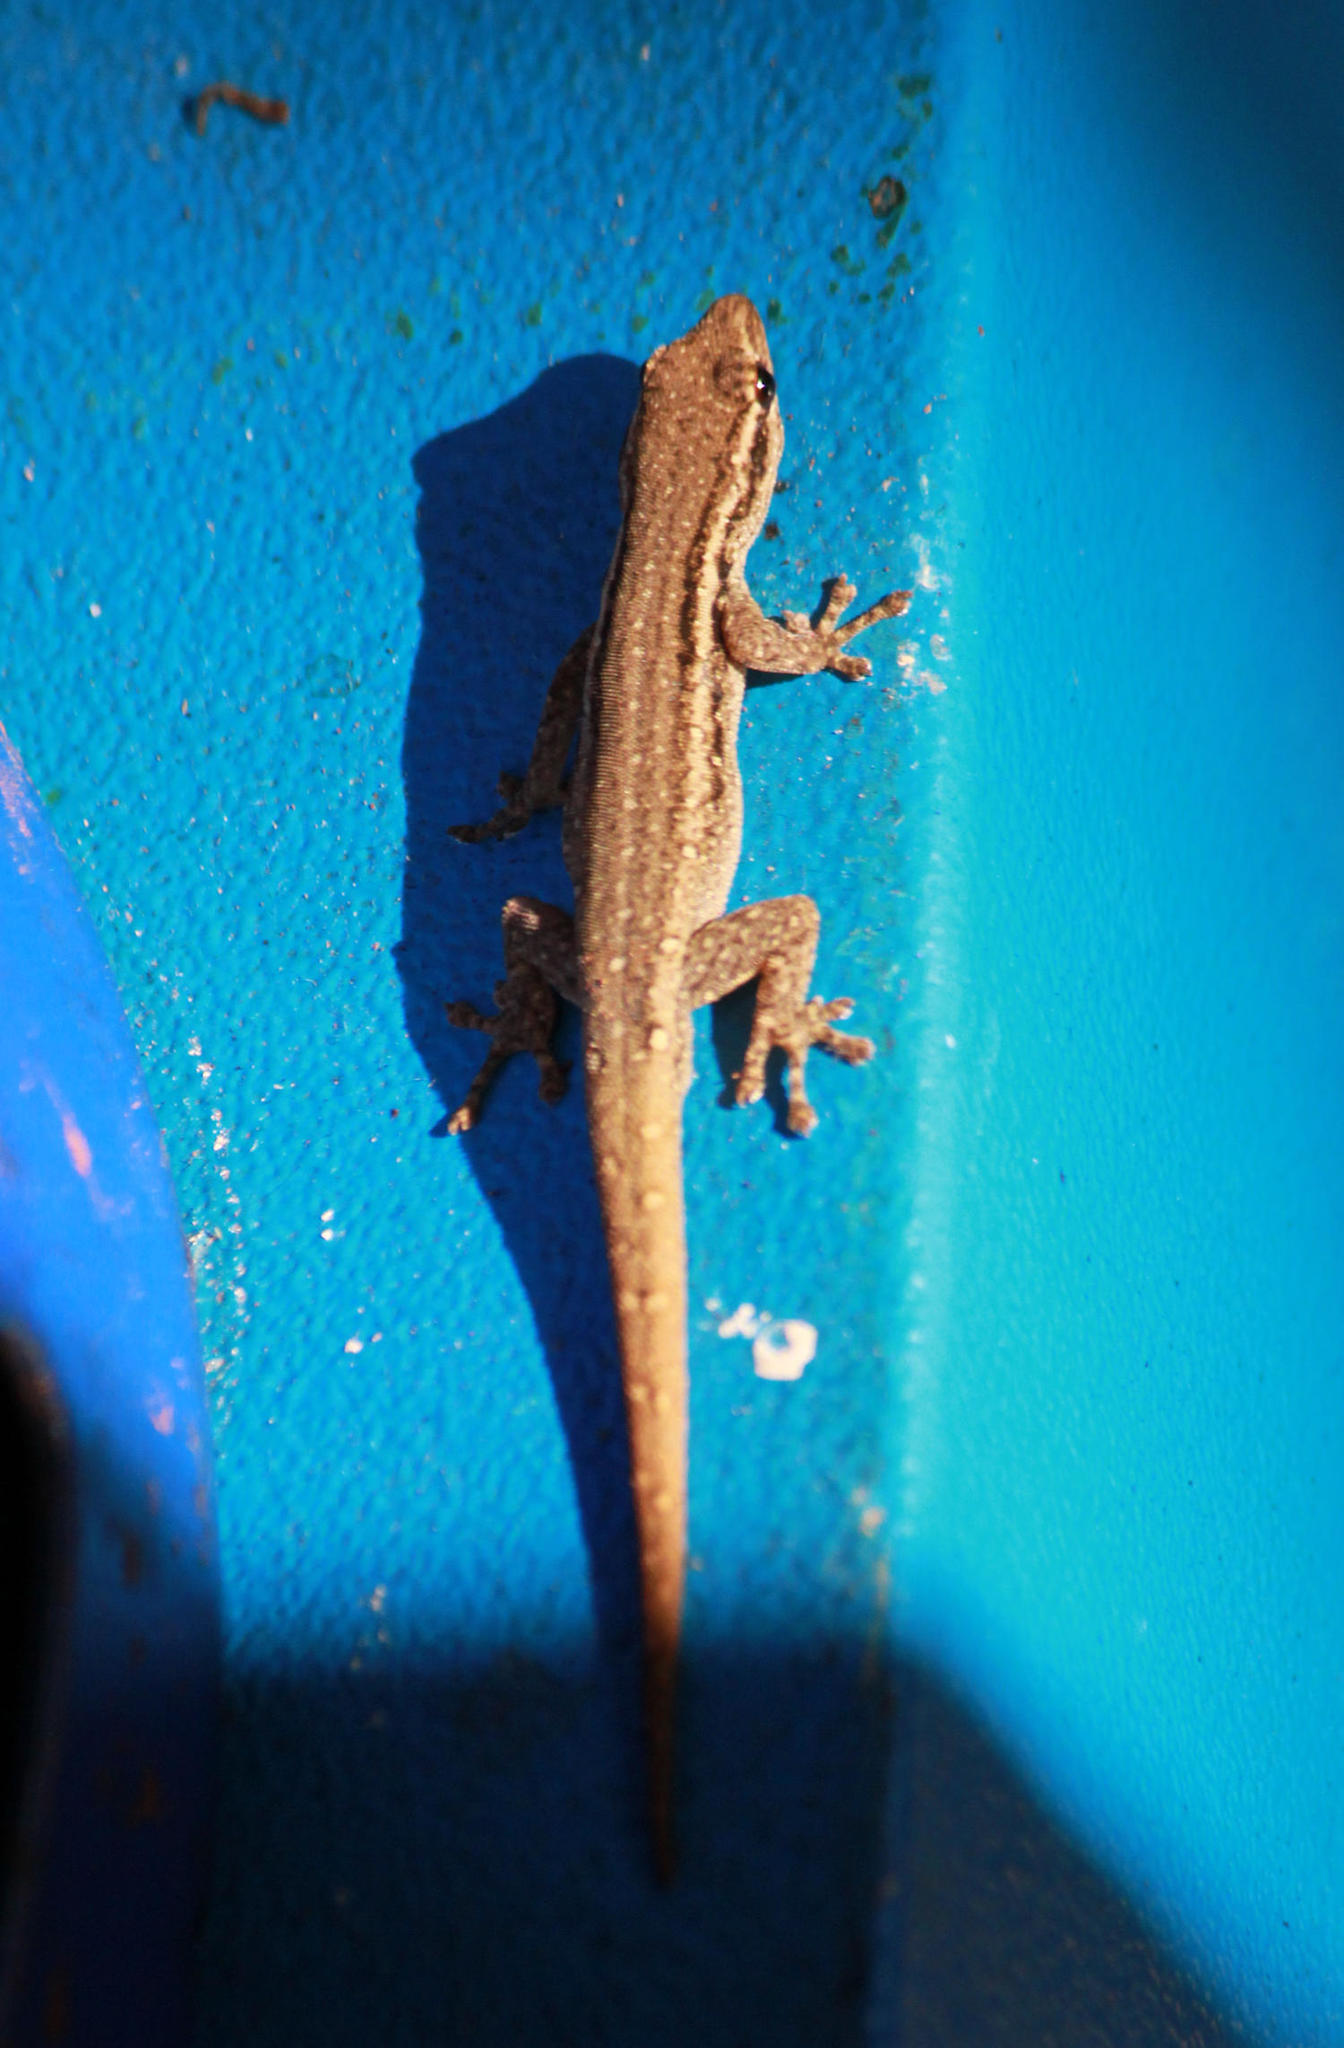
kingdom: Animalia
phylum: Chordata
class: Squamata
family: Gekkonidae
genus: Lygodactylus
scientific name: Lygodactylus capensis
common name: Cape dwarf gecko
